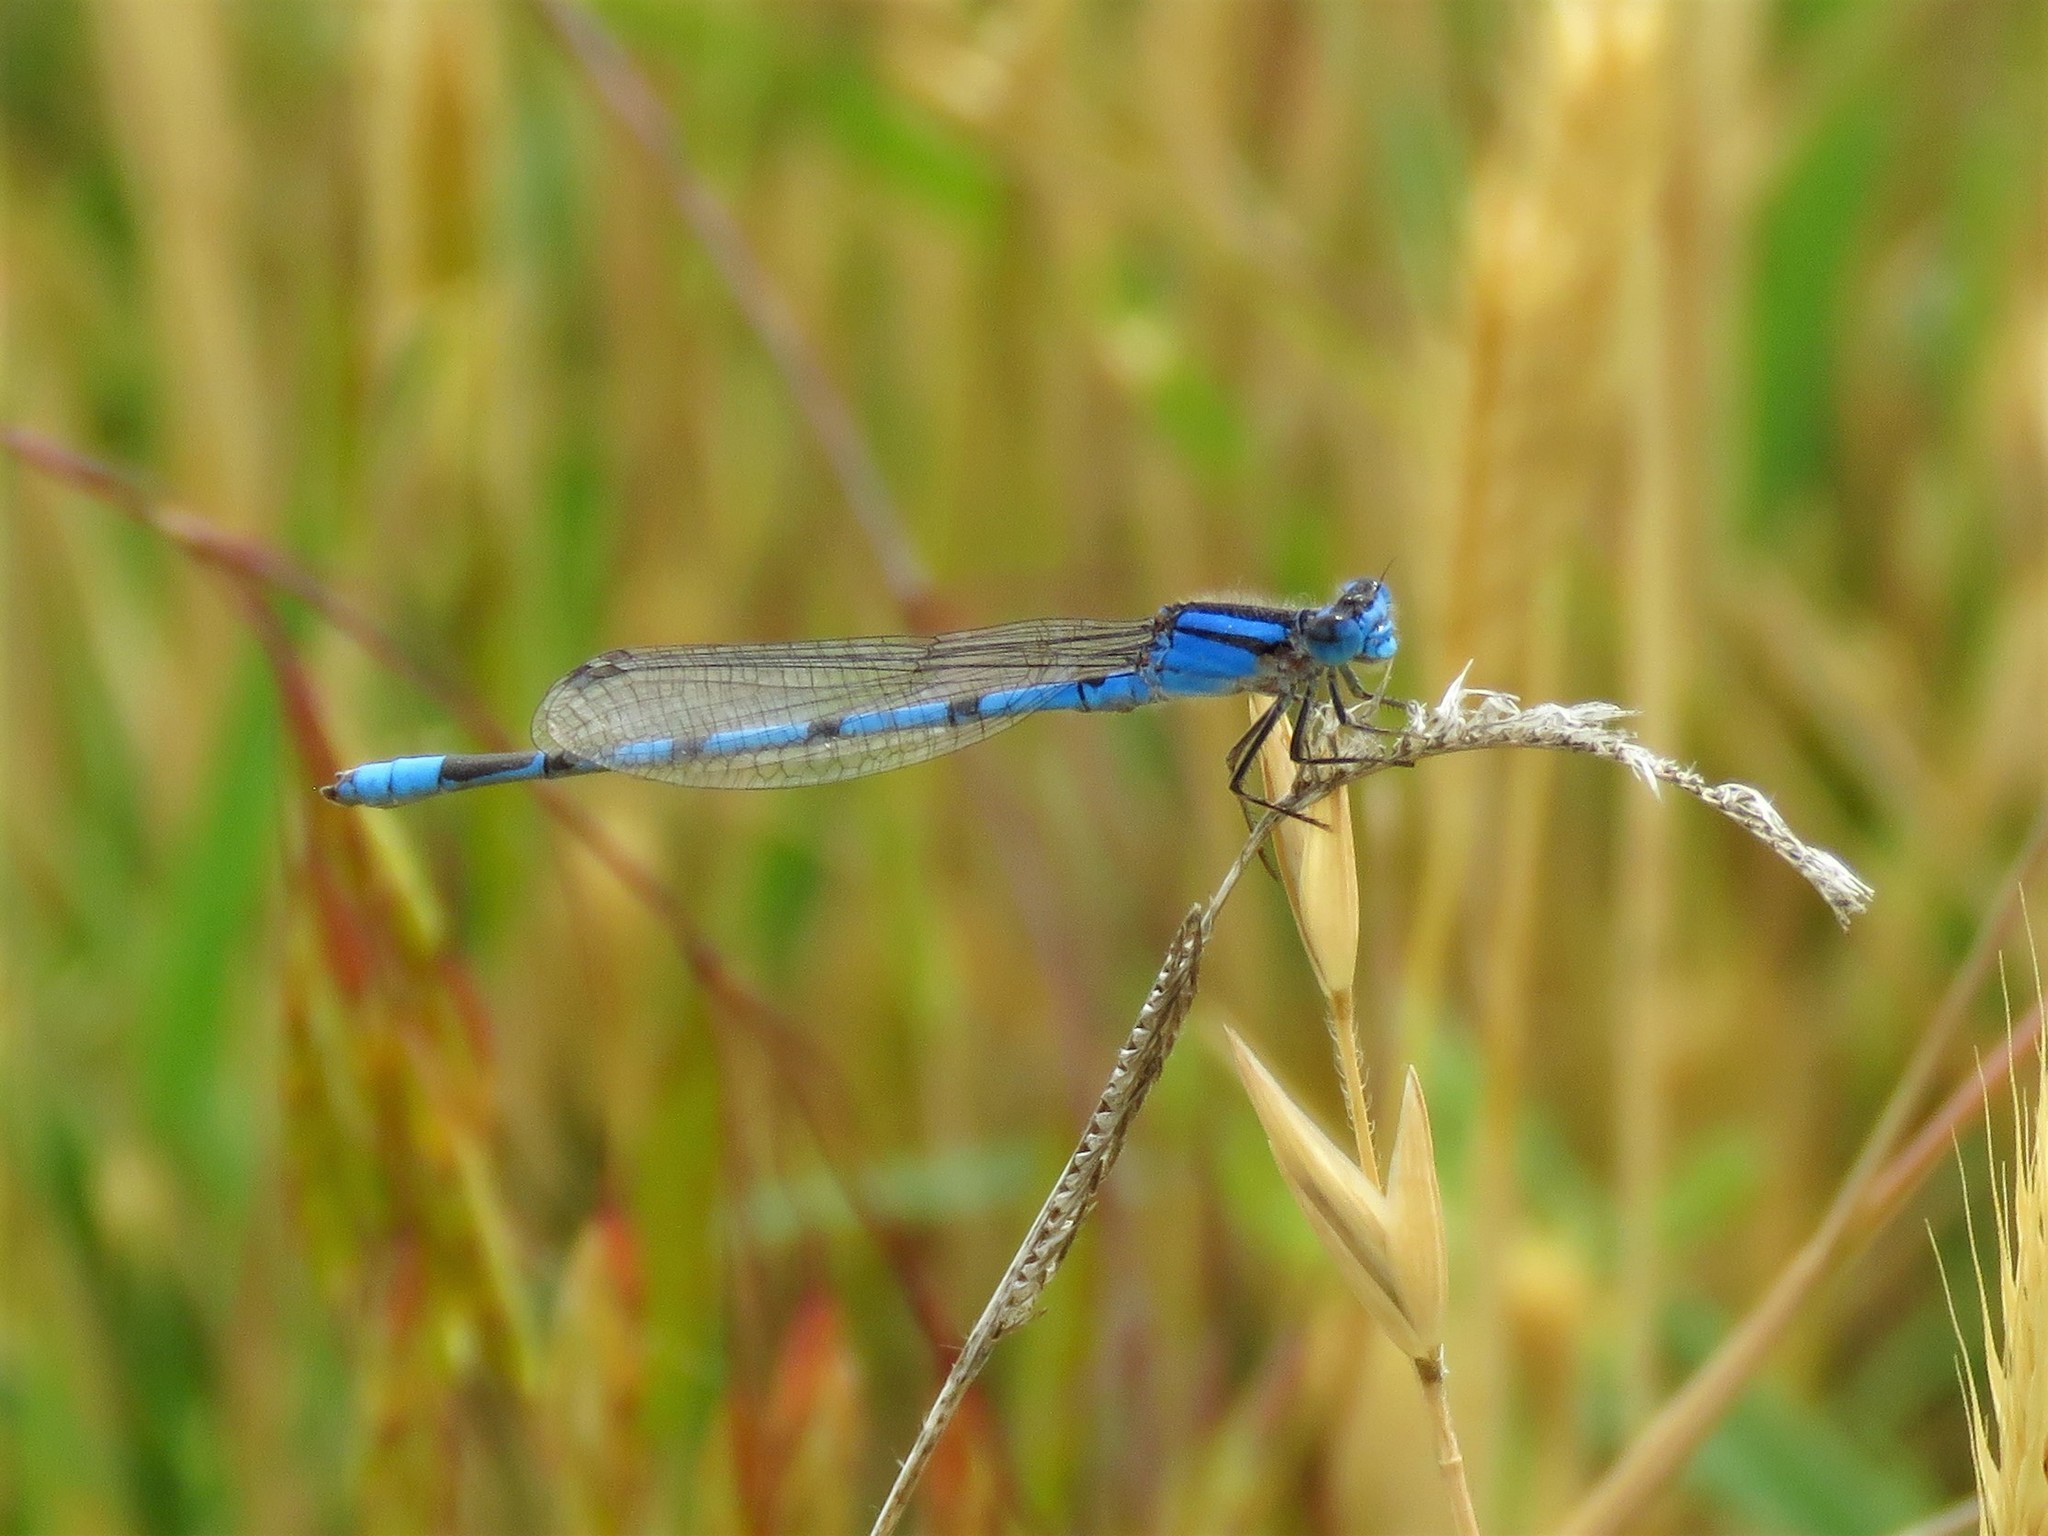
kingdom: Animalia
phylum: Arthropoda
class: Insecta
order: Odonata
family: Coenagrionidae
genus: Enallagma
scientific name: Enallagma civile
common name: Damselfly
